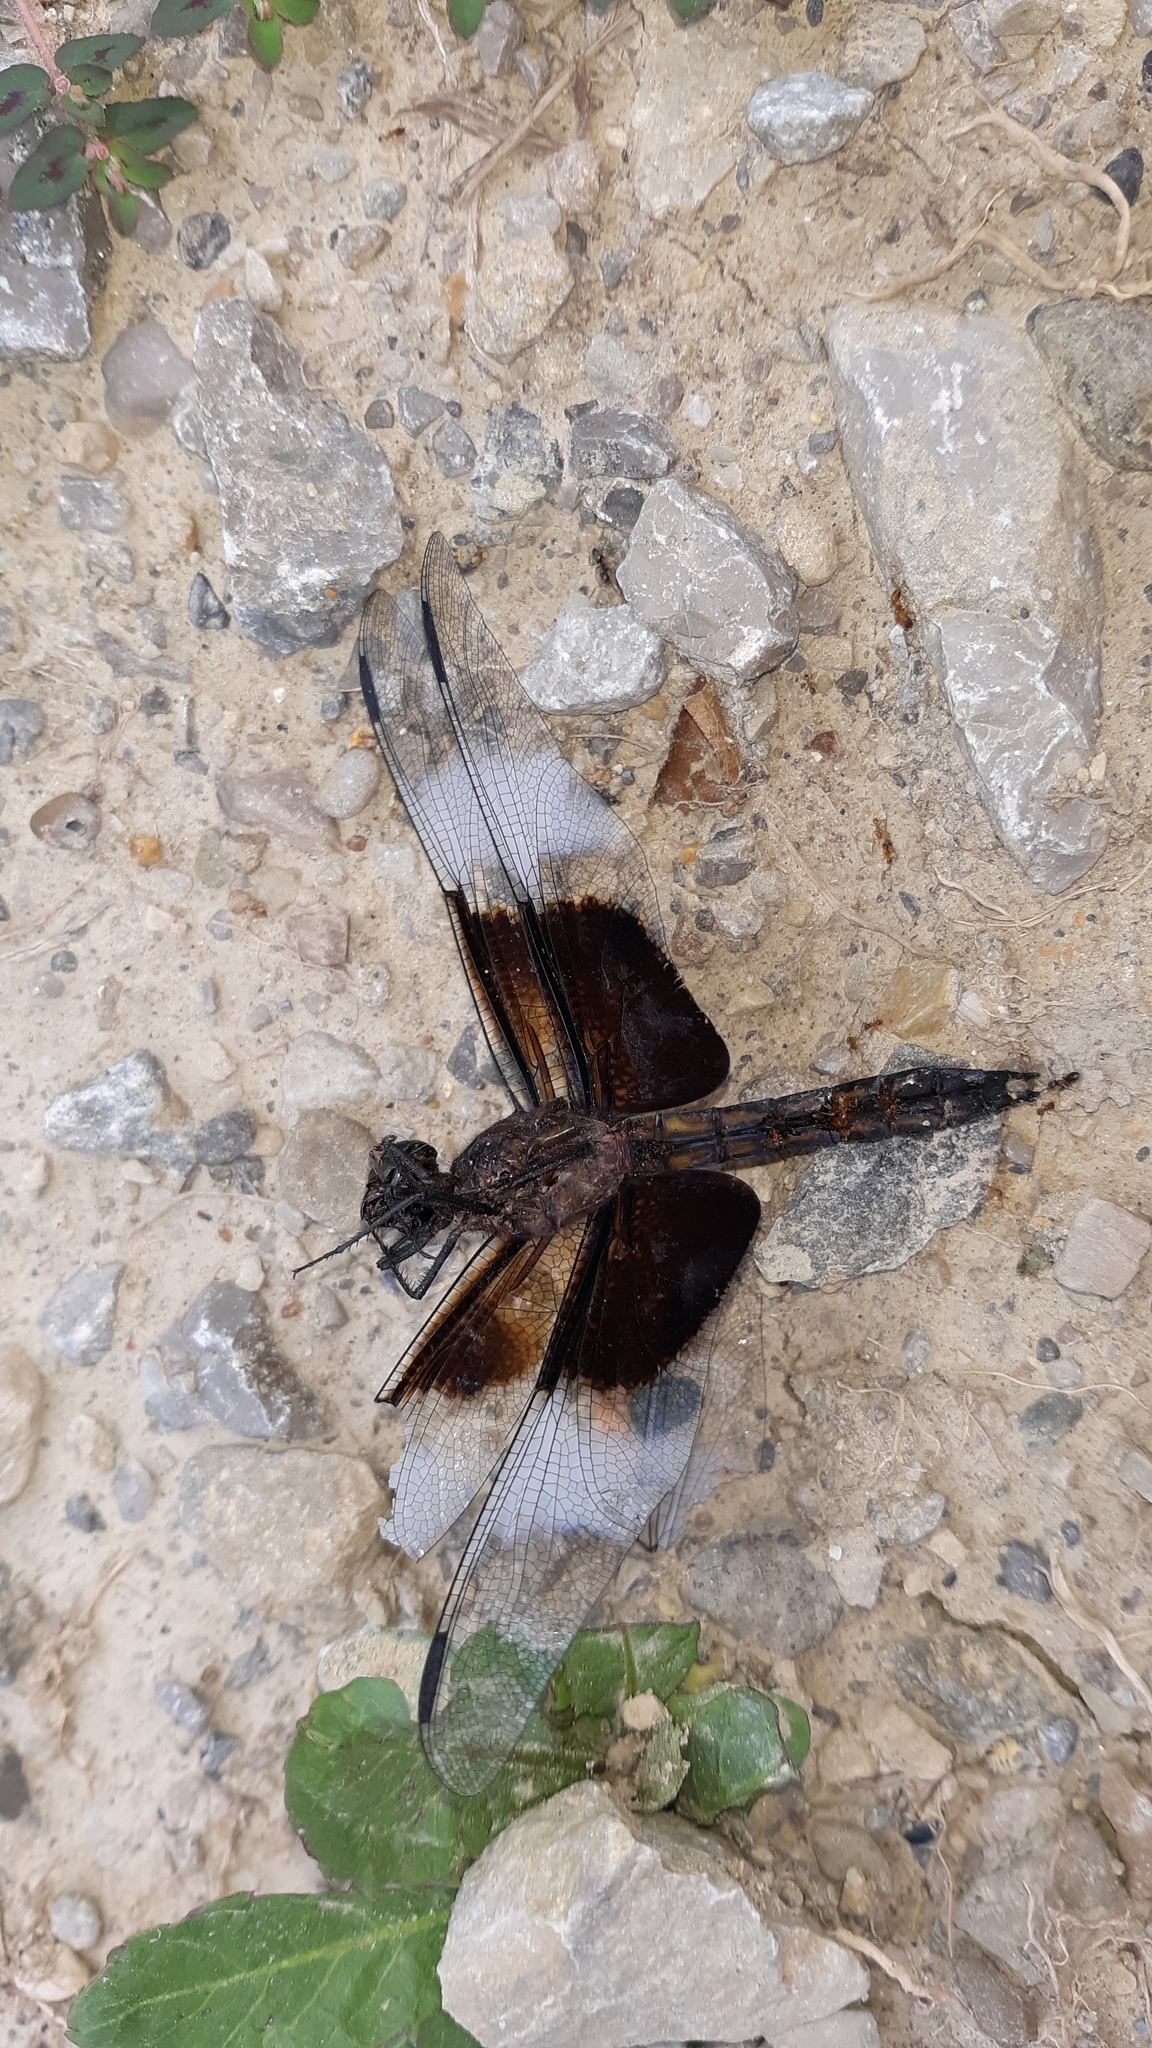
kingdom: Animalia
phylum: Arthropoda
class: Insecta
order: Odonata
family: Libellulidae
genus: Libellula
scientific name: Libellula luctuosa
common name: Widow skimmer
